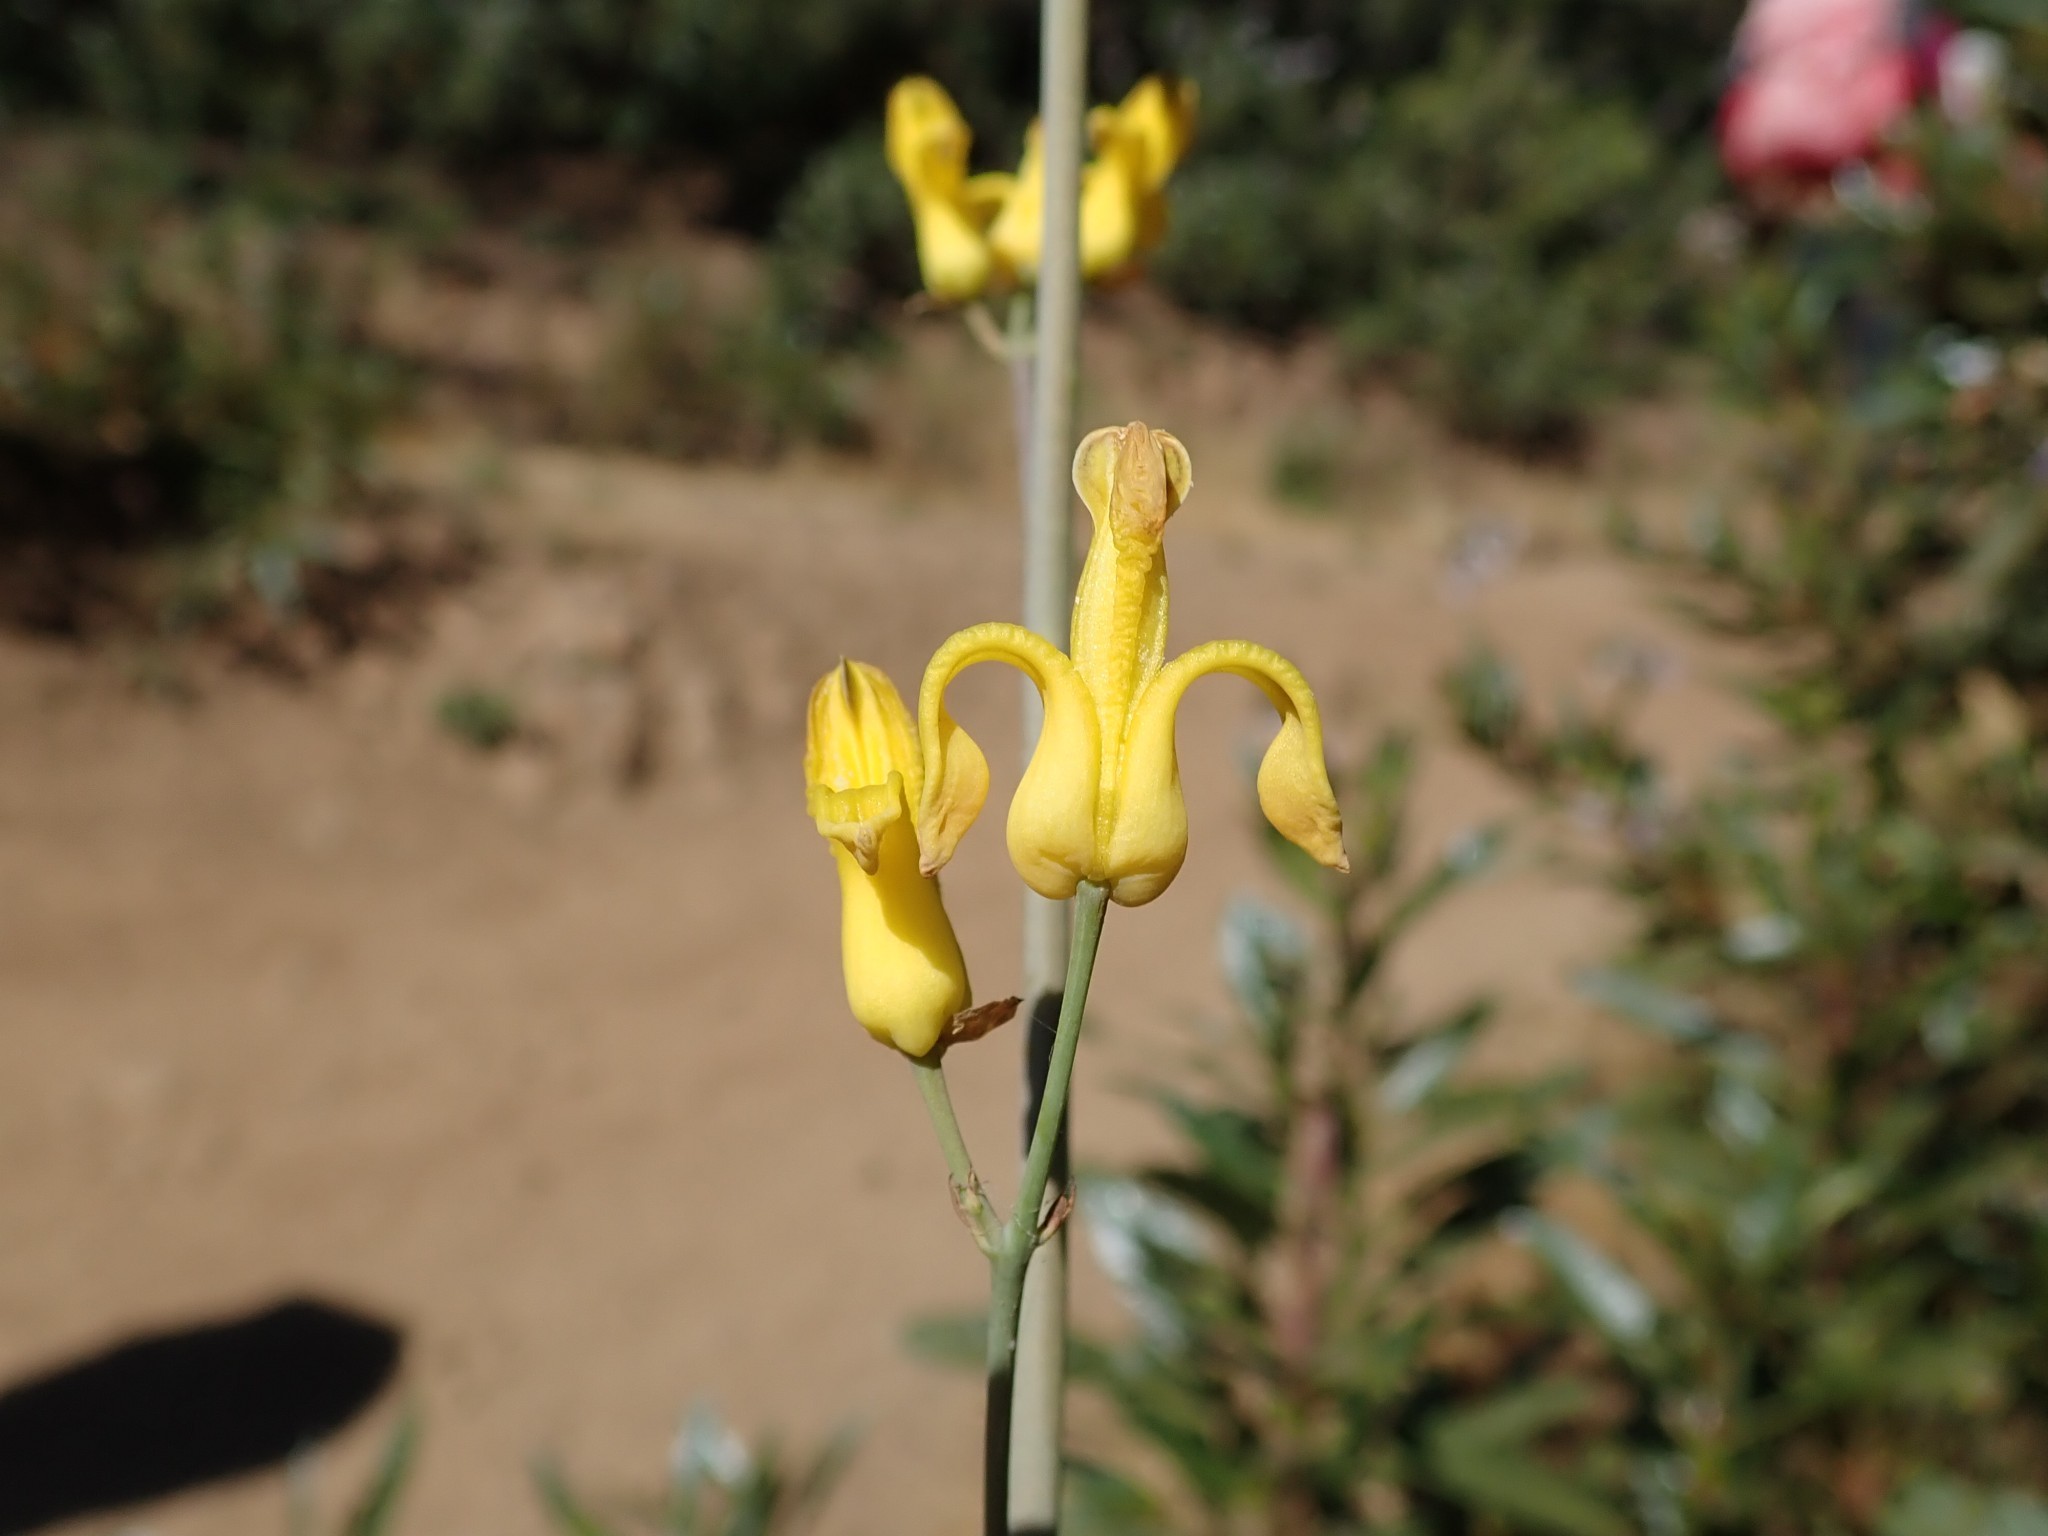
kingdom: Plantae
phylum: Tracheophyta
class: Magnoliopsida
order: Ranunculales
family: Papaveraceae
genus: Ehrendorferia
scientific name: Ehrendorferia chrysantha
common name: Golden eardrops
